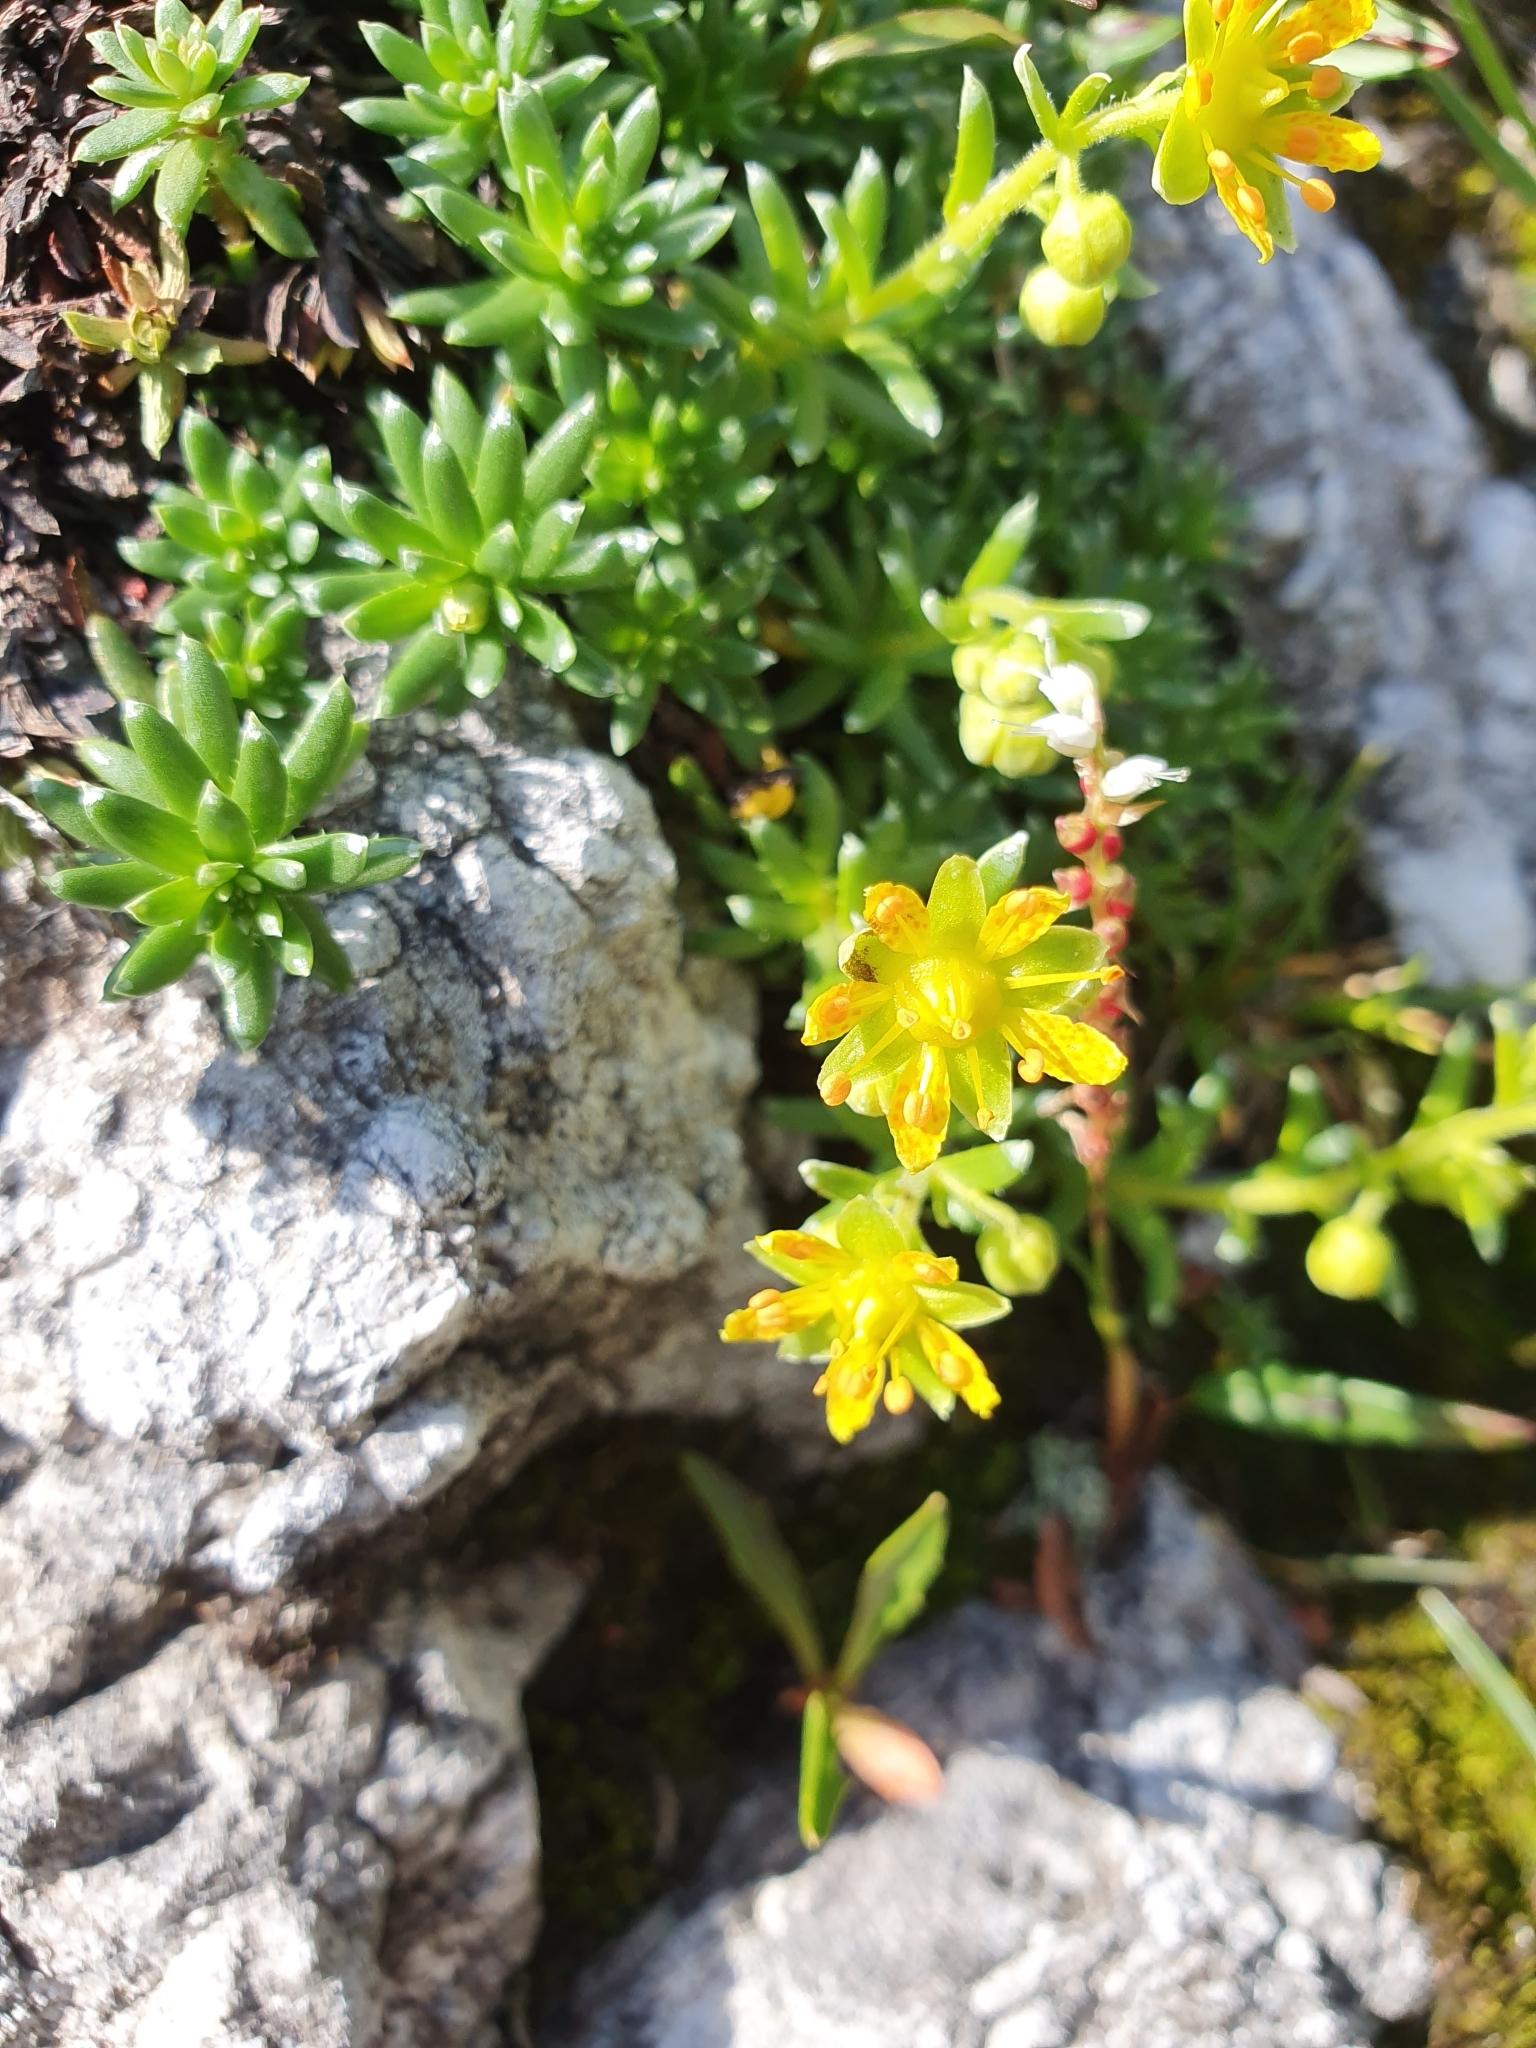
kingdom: Plantae
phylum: Tracheophyta
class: Magnoliopsida
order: Saxifragales
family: Saxifragaceae
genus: Saxifraga
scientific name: Saxifraga aizoides
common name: Yellow mountain saxifrage
